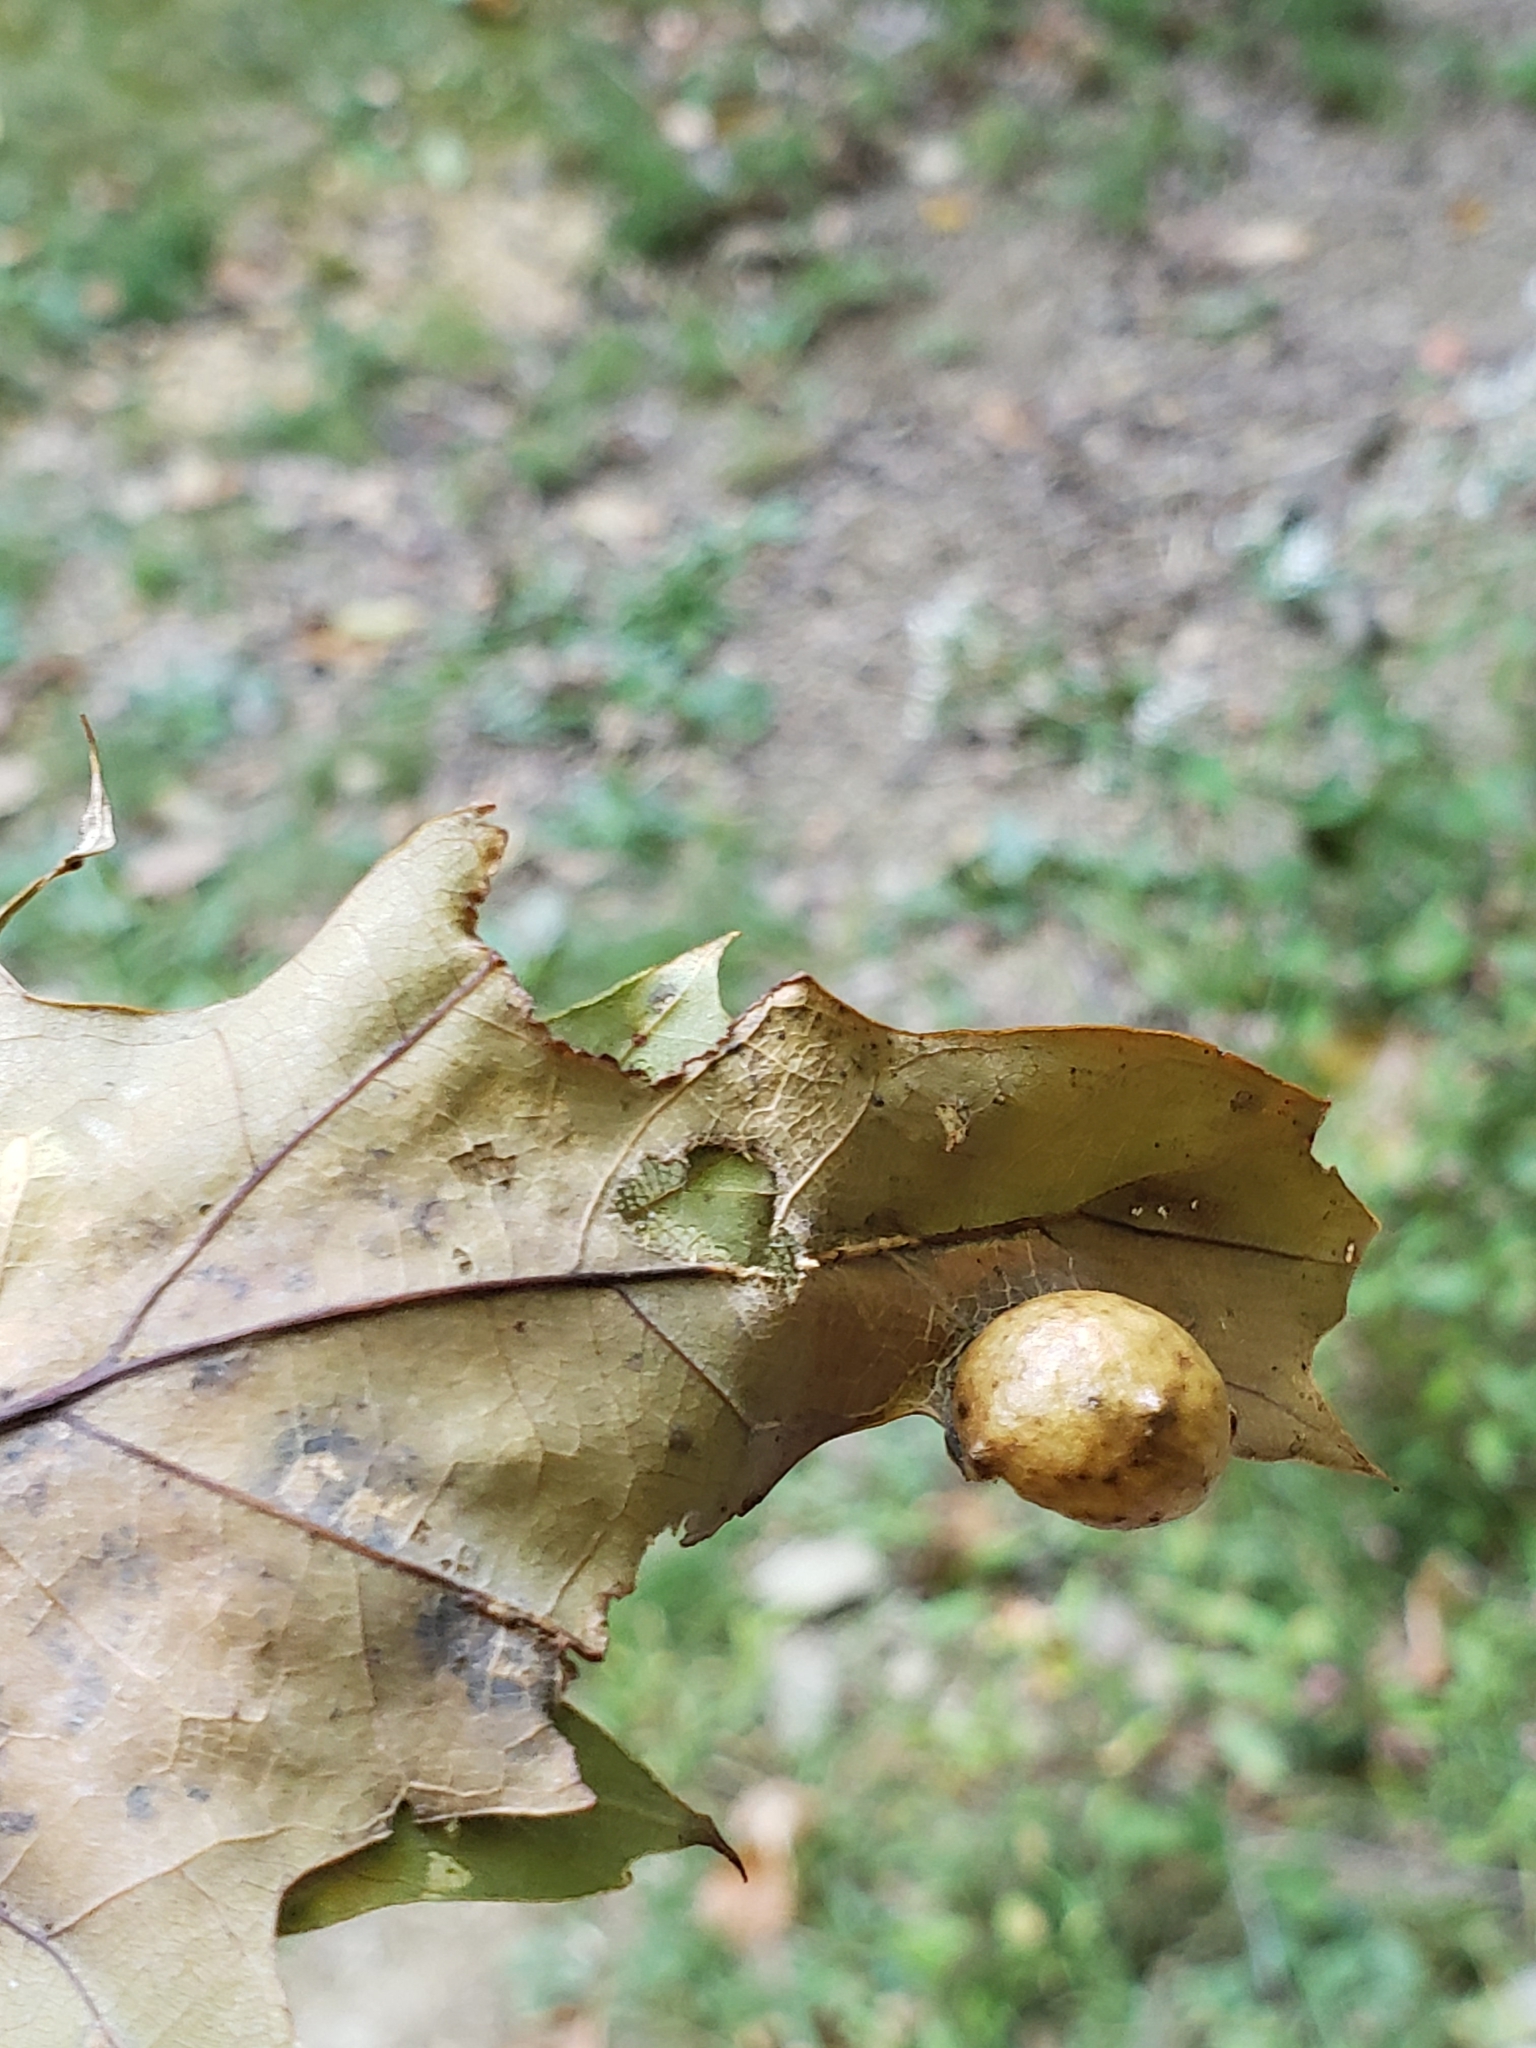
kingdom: Animalia
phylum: Arthropoda
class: Insecta
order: Hymenoptera
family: Cynipidae
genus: Amphibolips
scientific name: Amphibolips
